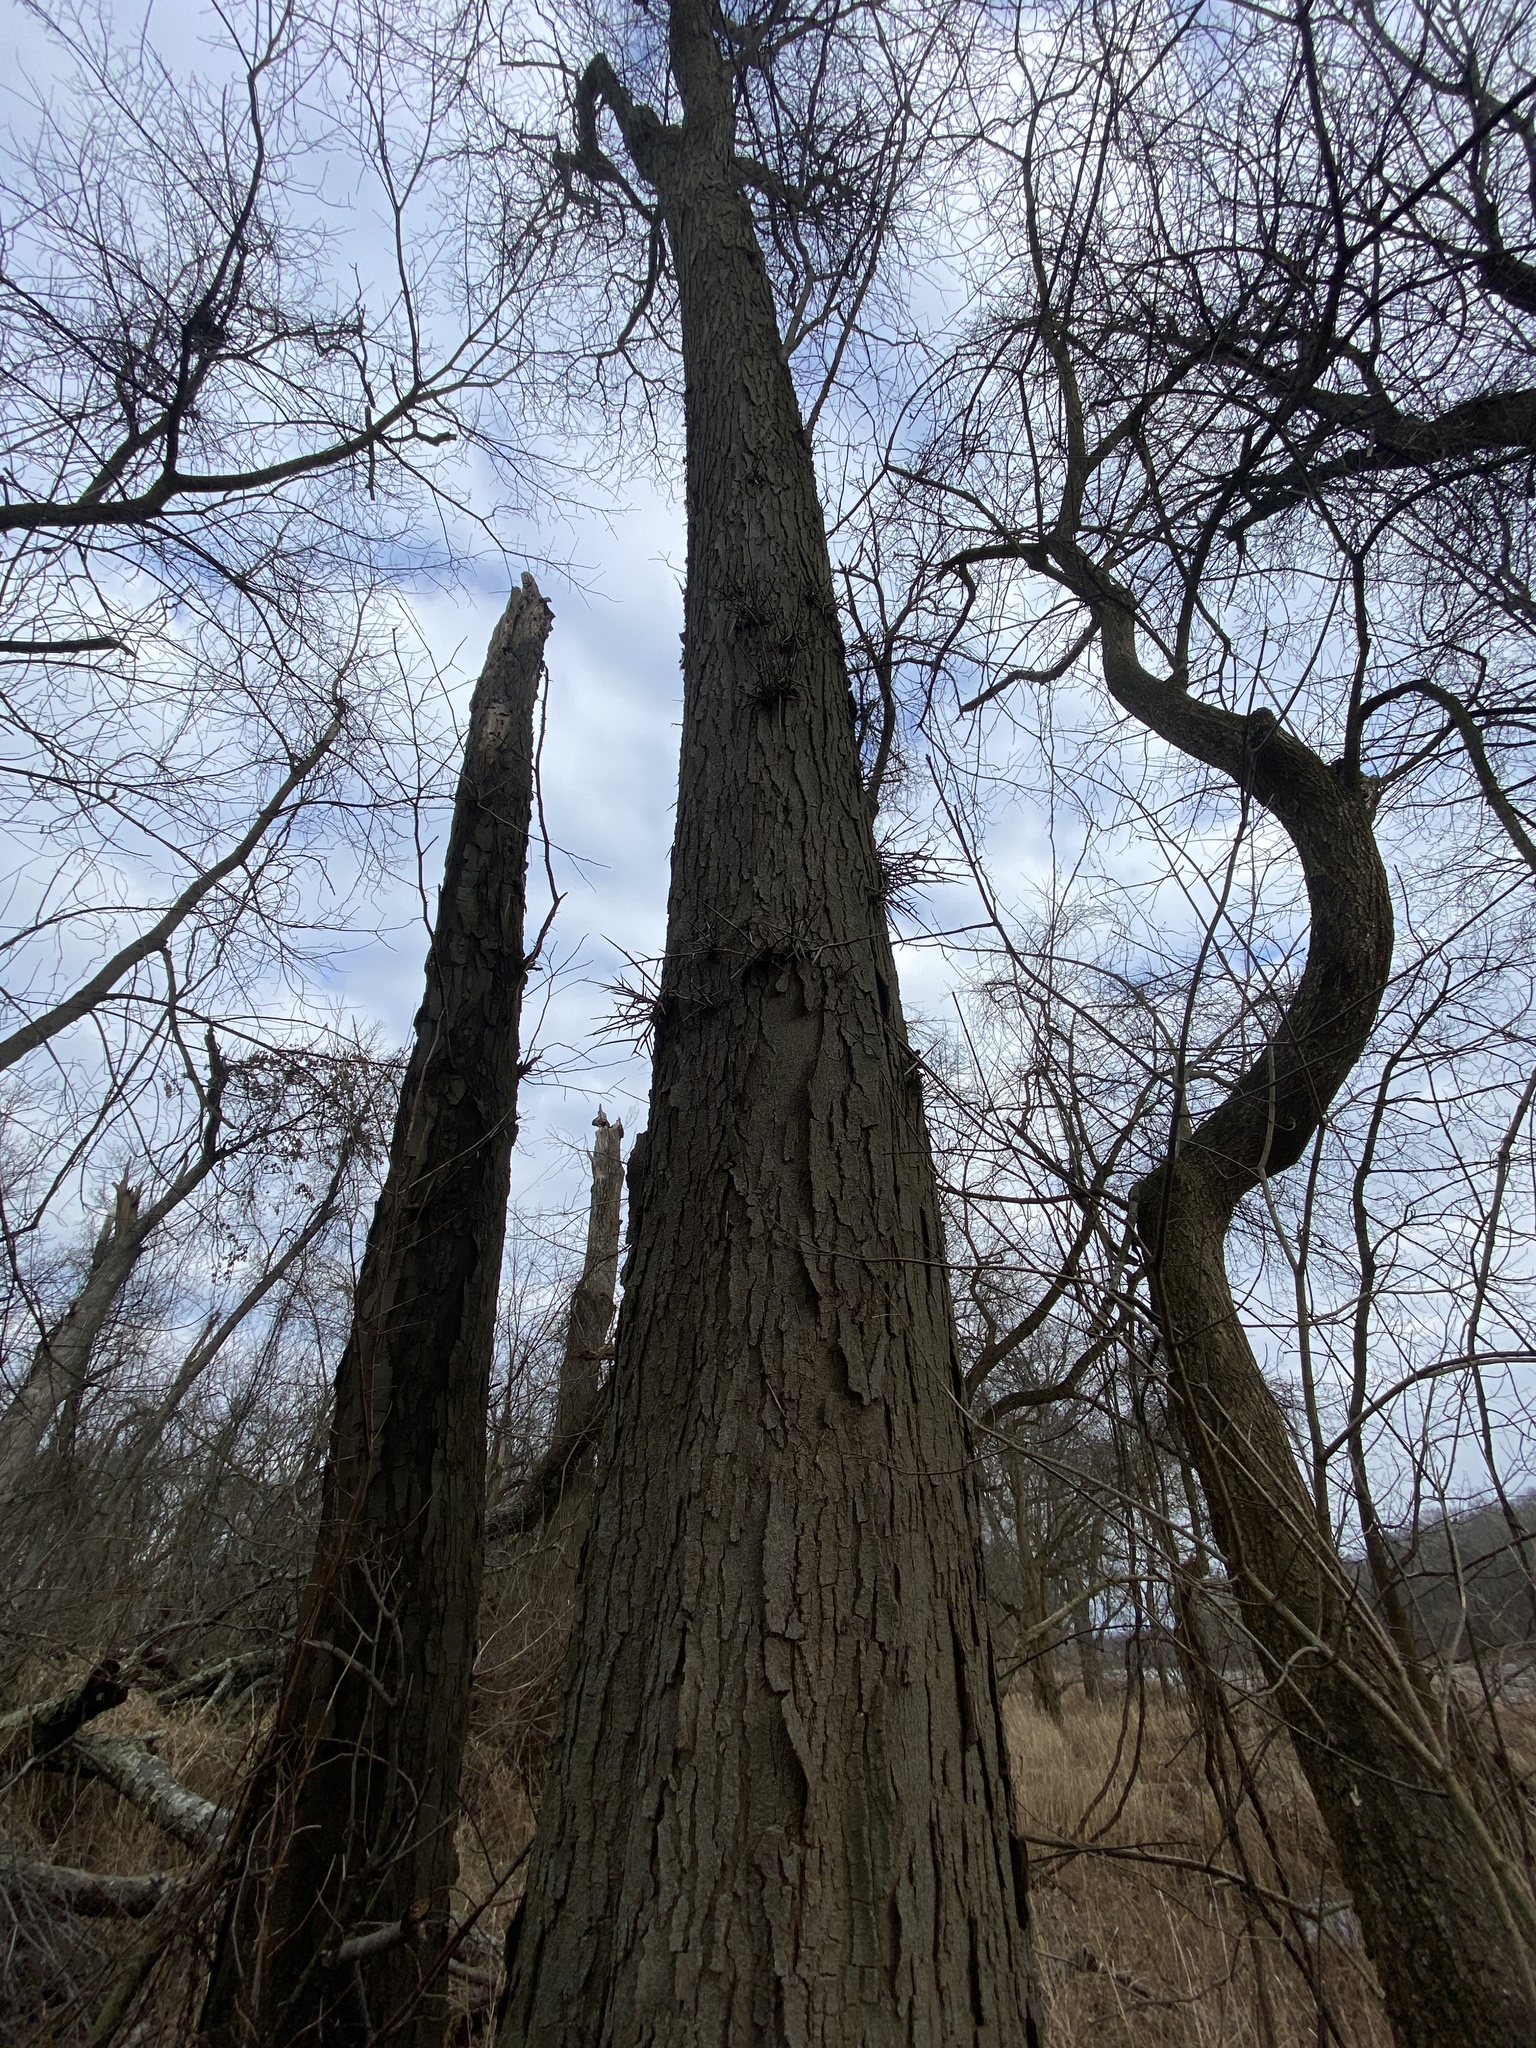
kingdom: Plantae
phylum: Tracheophyta
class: Magnoliopsida
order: Fabales
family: Fabaceae
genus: Gleditsia
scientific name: Gleditsia triacanthos
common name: Common honeylocust
